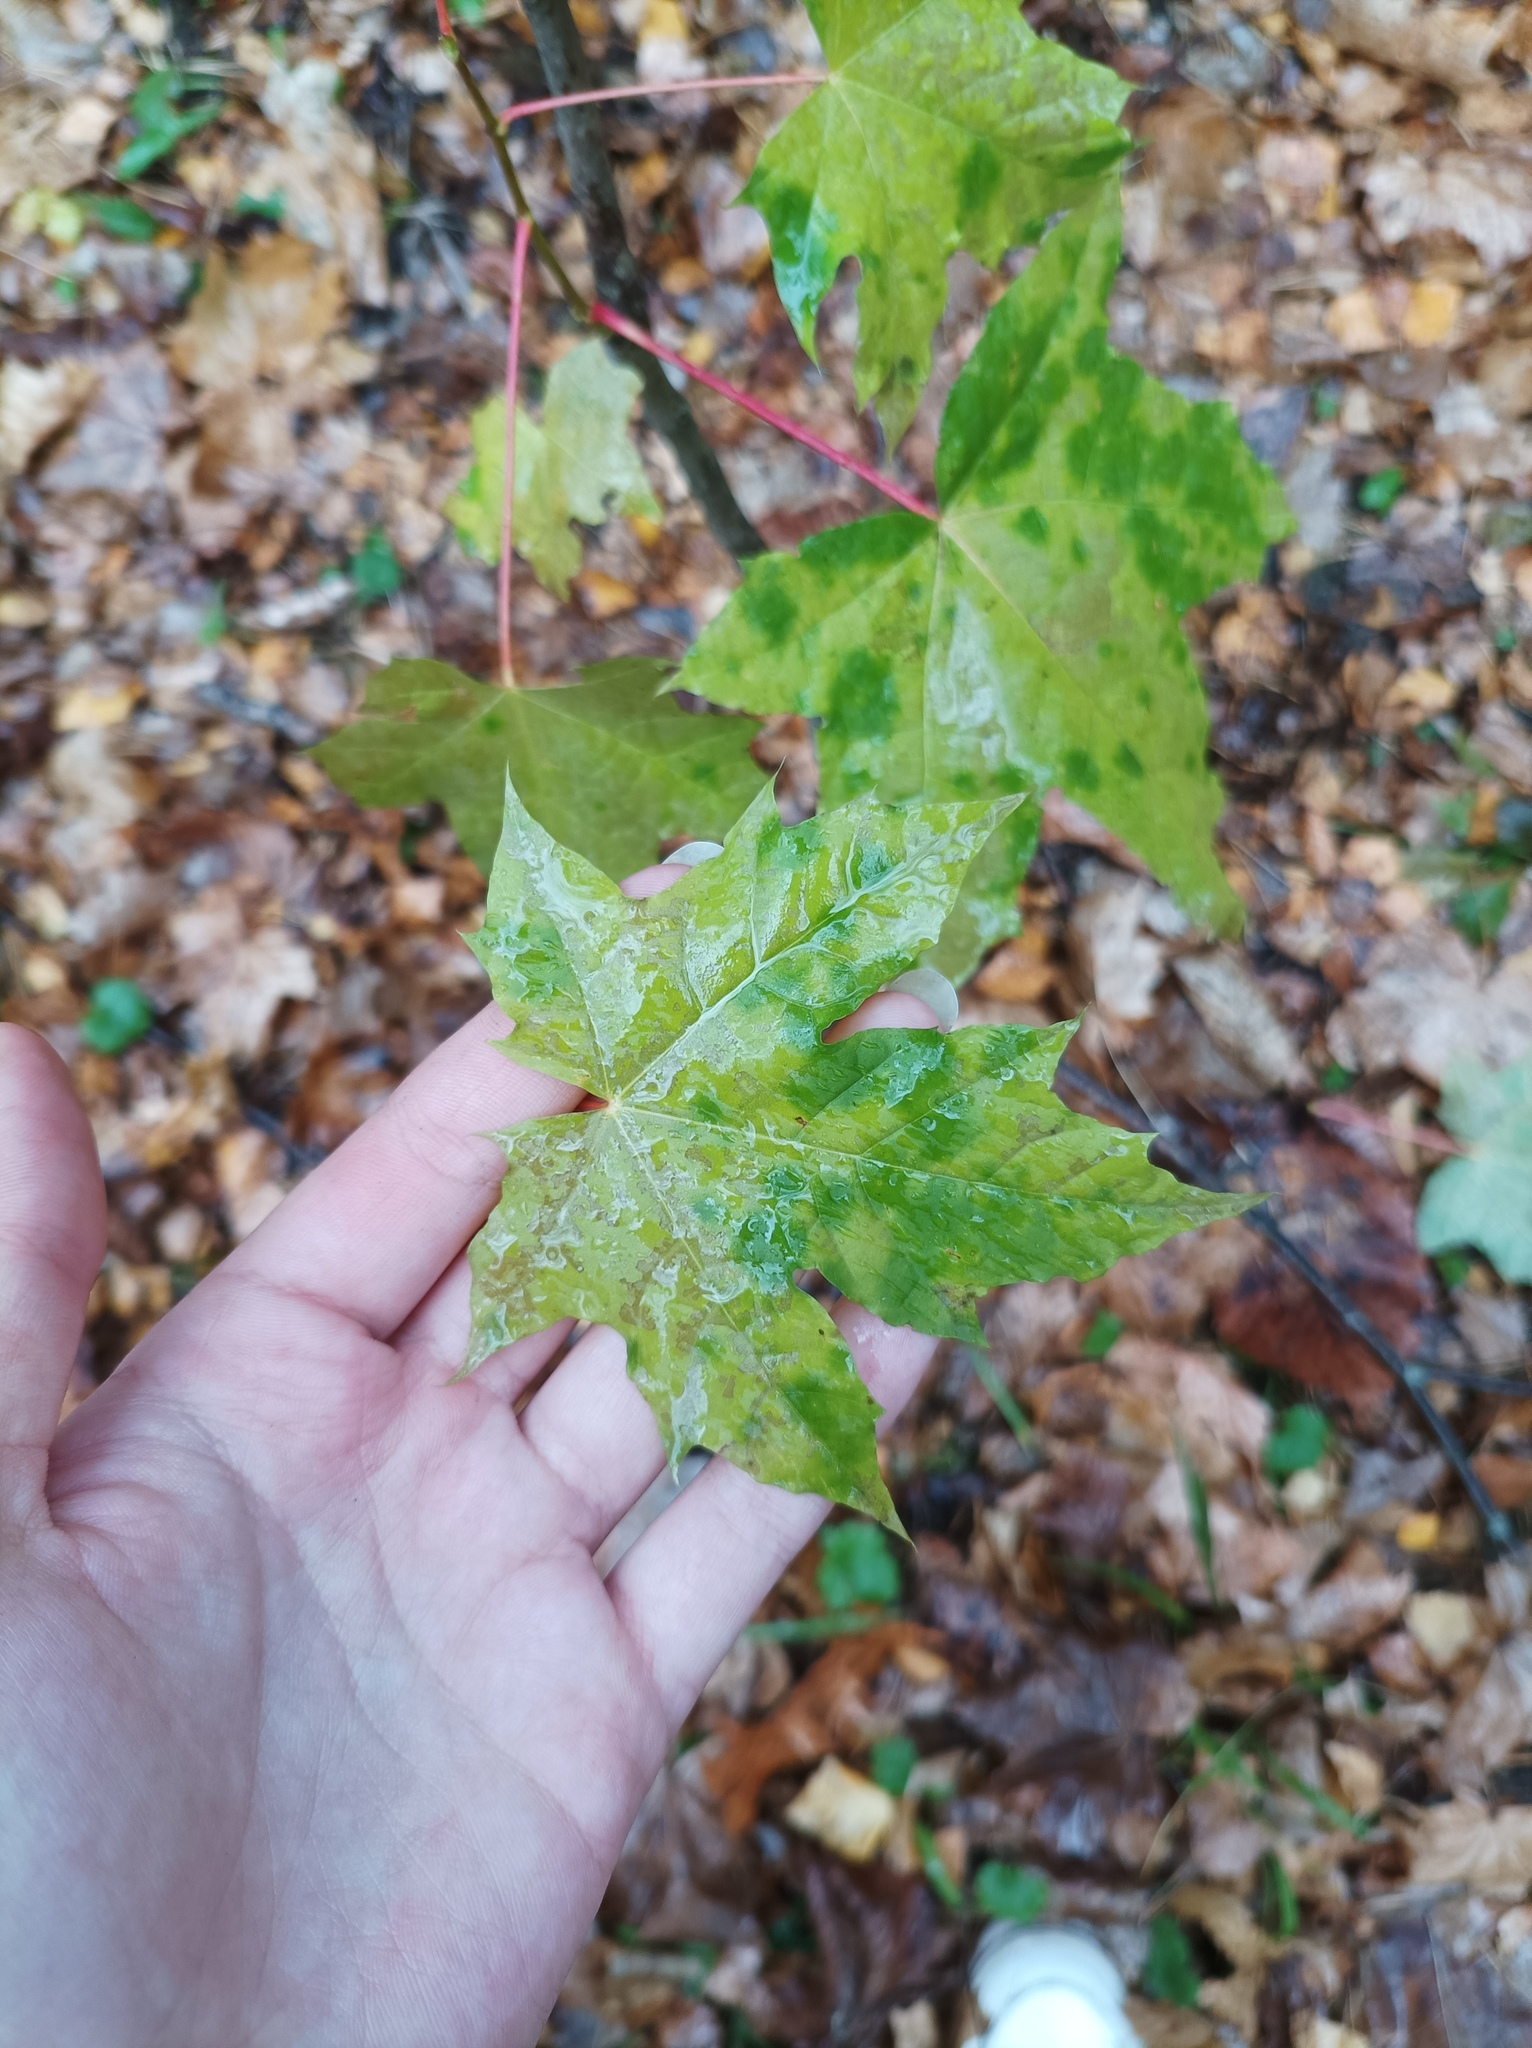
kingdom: Plantae
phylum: Tracheophyta
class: Magnoliopsida
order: Sapindales
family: Sapindaceae
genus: Acer
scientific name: Acer platanoides
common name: Norway maple
